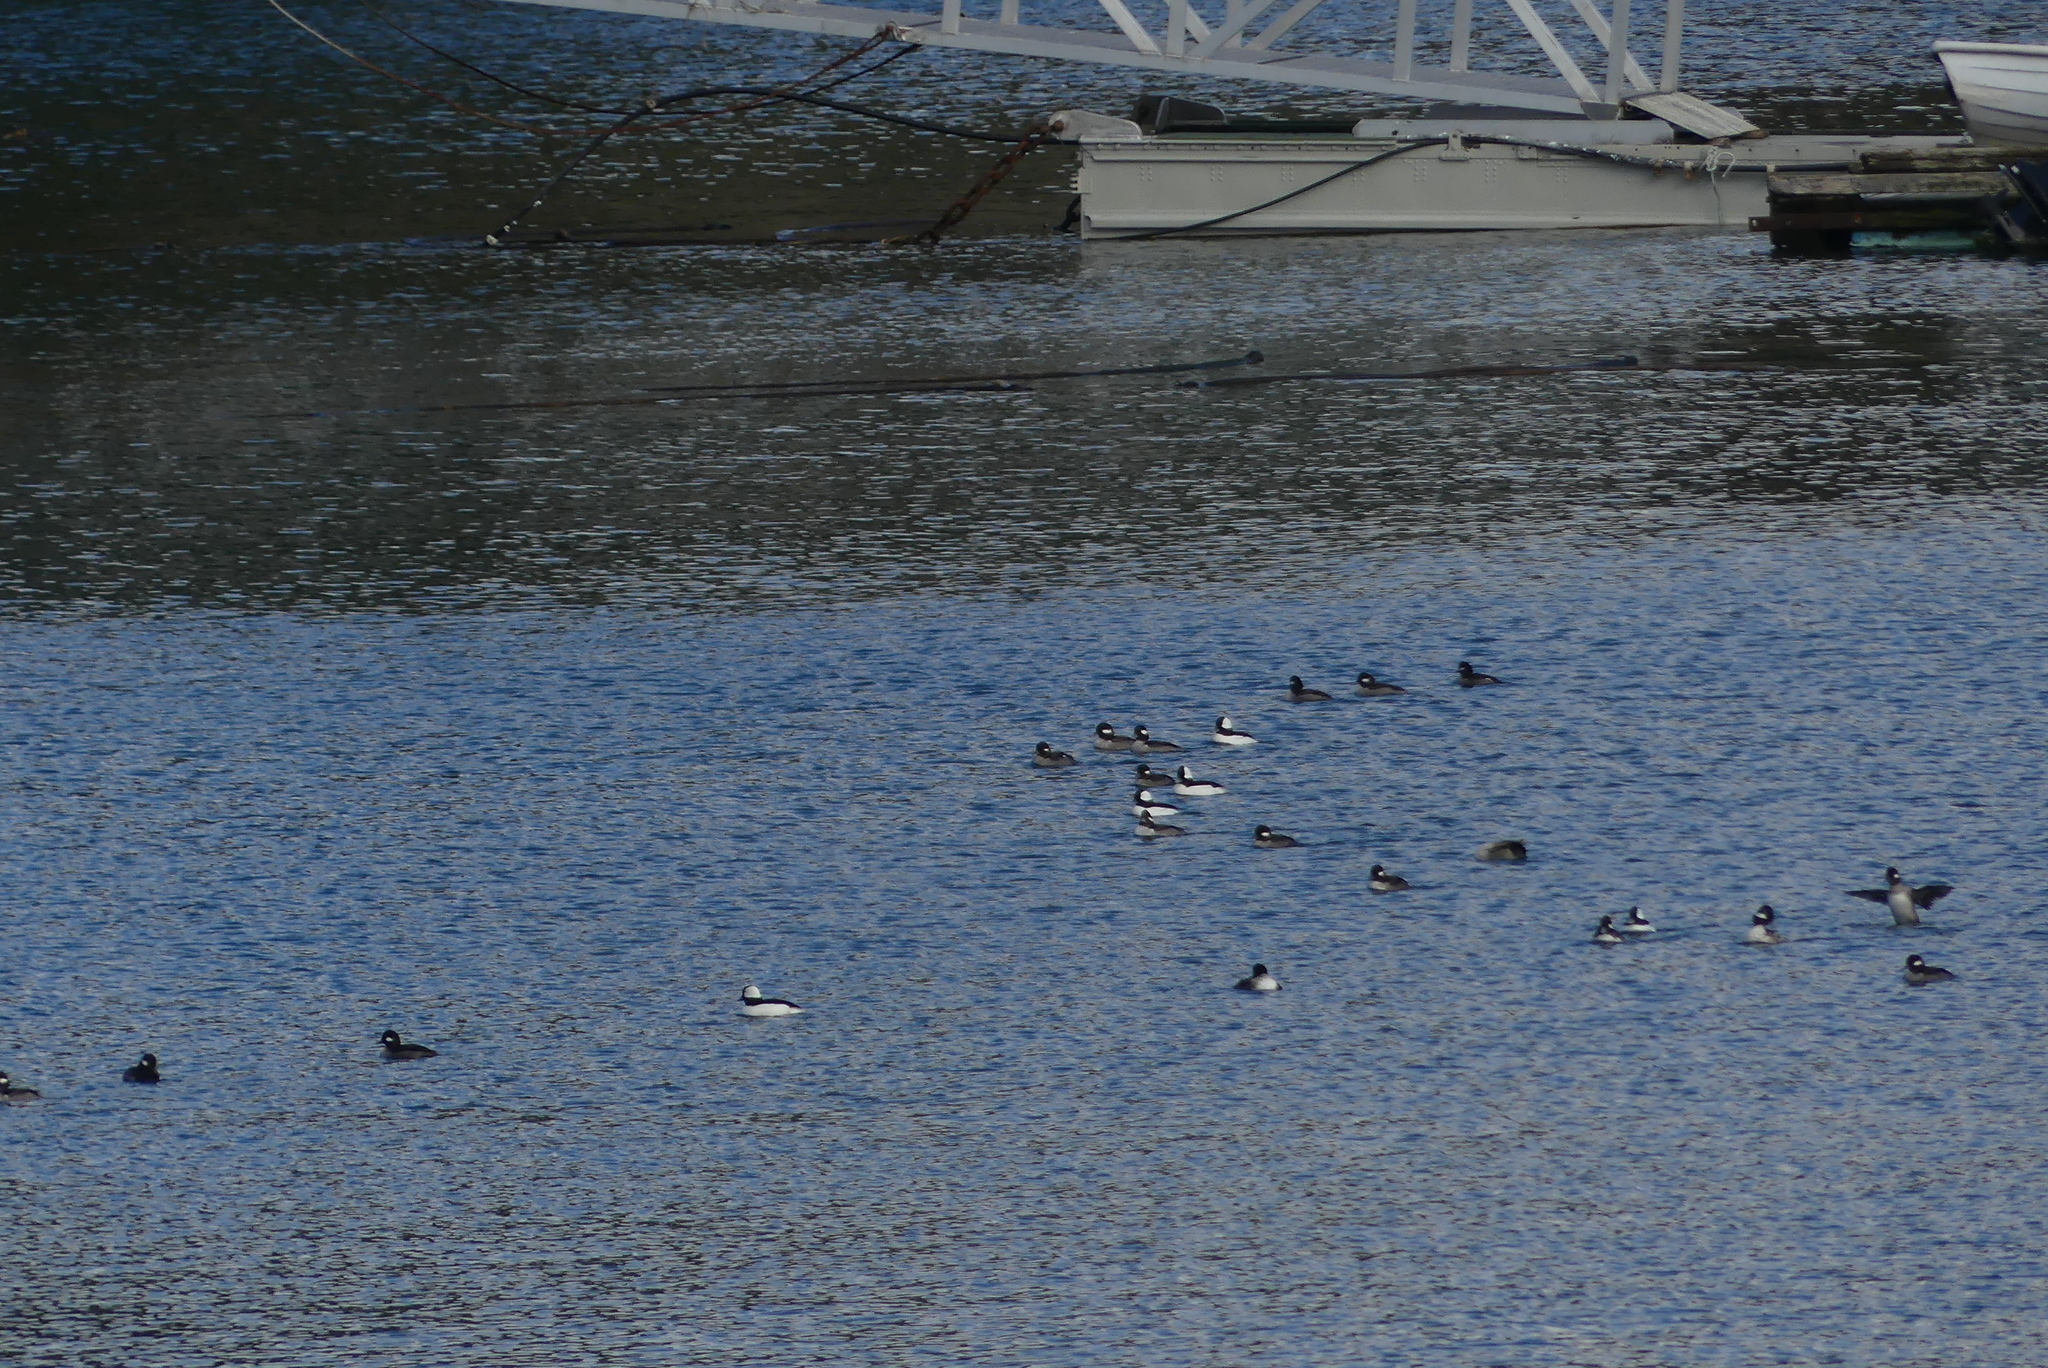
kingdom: Animalia
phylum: Chordata
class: Aves
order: Anseriformes
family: Anatidae
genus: Bucephala
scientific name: Bucephala albeola
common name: Bufflehead
